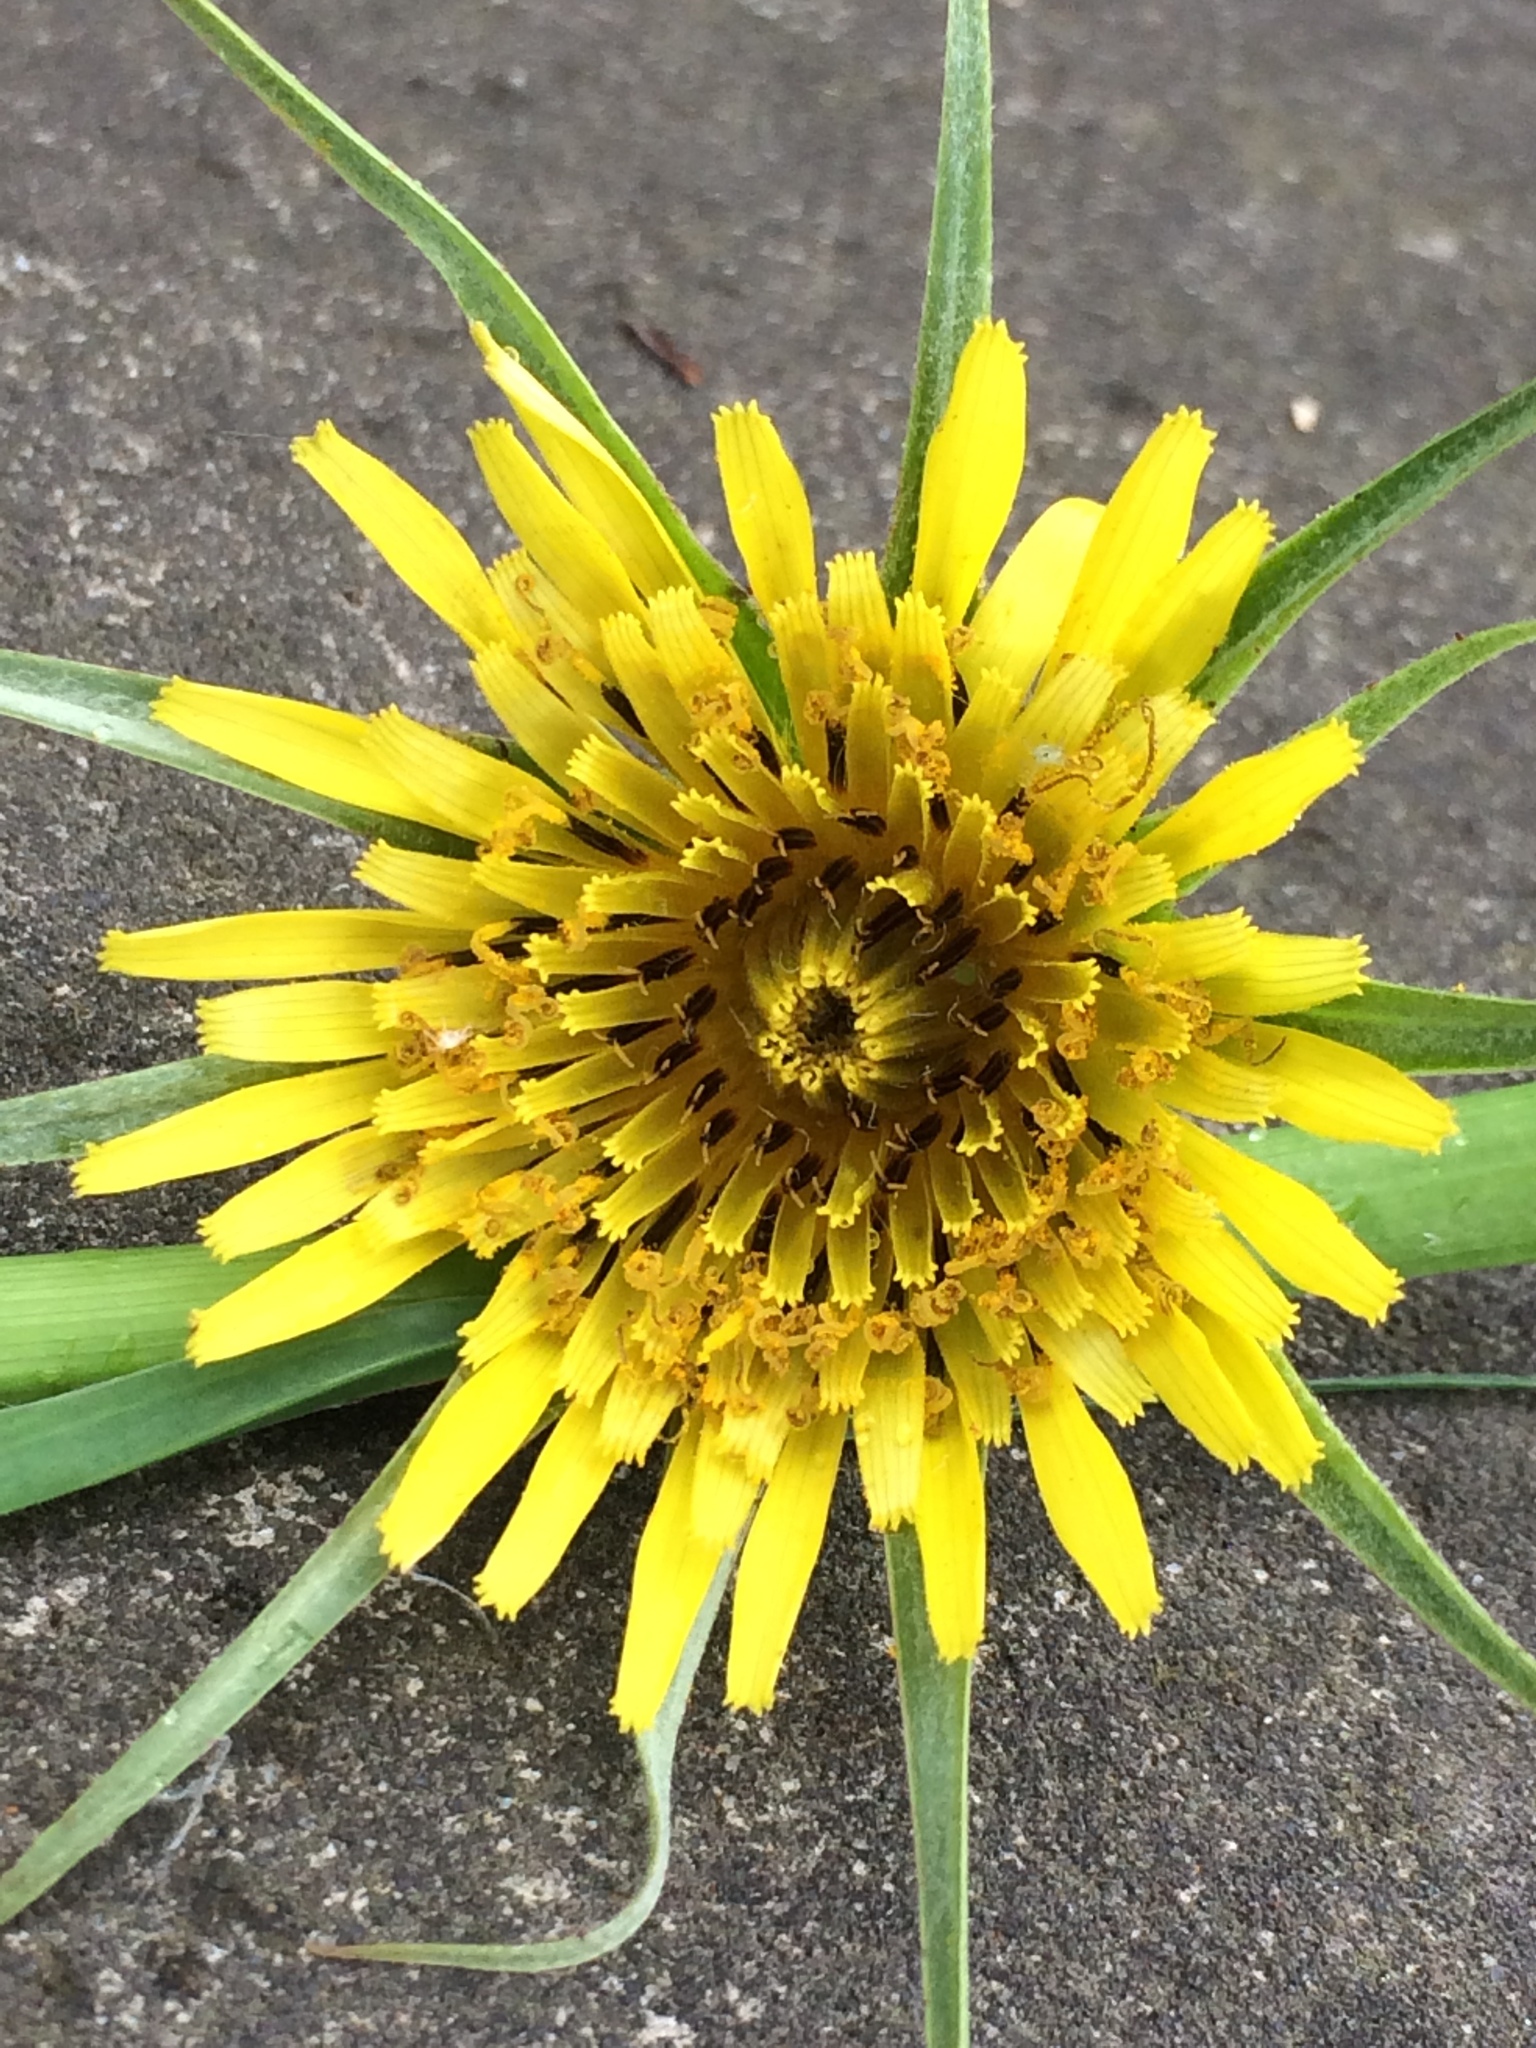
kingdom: Plantae
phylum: Tracheophyta
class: Magnoliopsida
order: Asterales
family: Asteraceae
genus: Tragopogon
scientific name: Tragopogon dubius
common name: Yellow salsify
